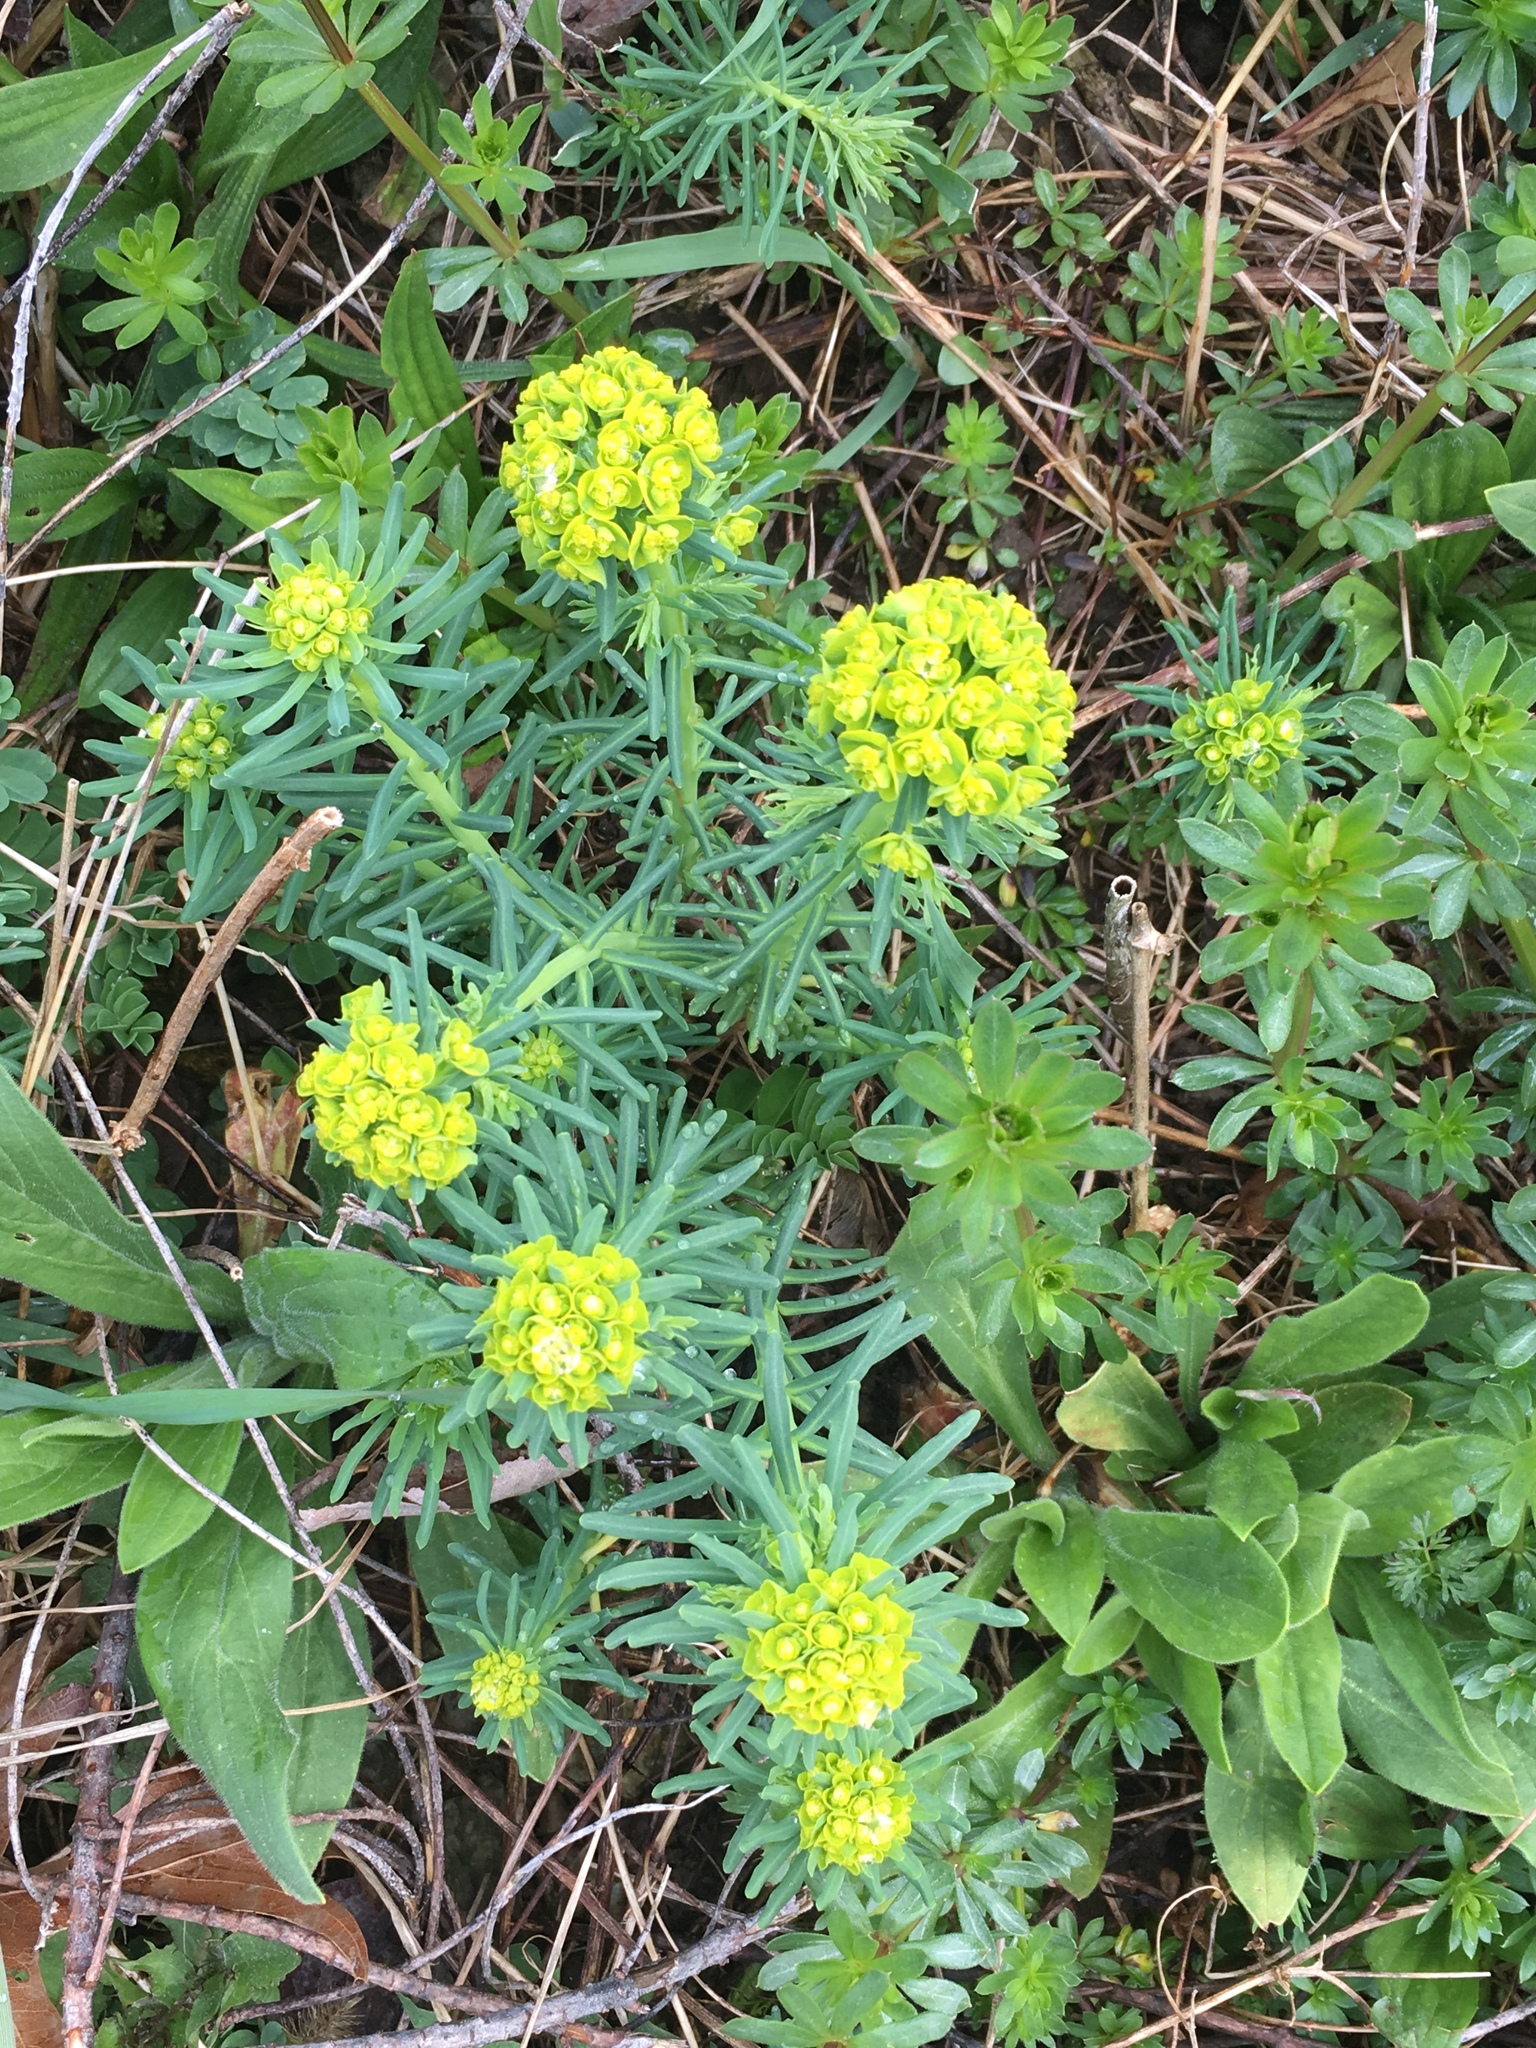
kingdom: Plantae
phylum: Tracheophyta
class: Magnoliopsida
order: Malpighiales
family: Euphorbiaceae
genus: Euphorbia
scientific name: Euphorbia cyparissias
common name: Cypress spurge
